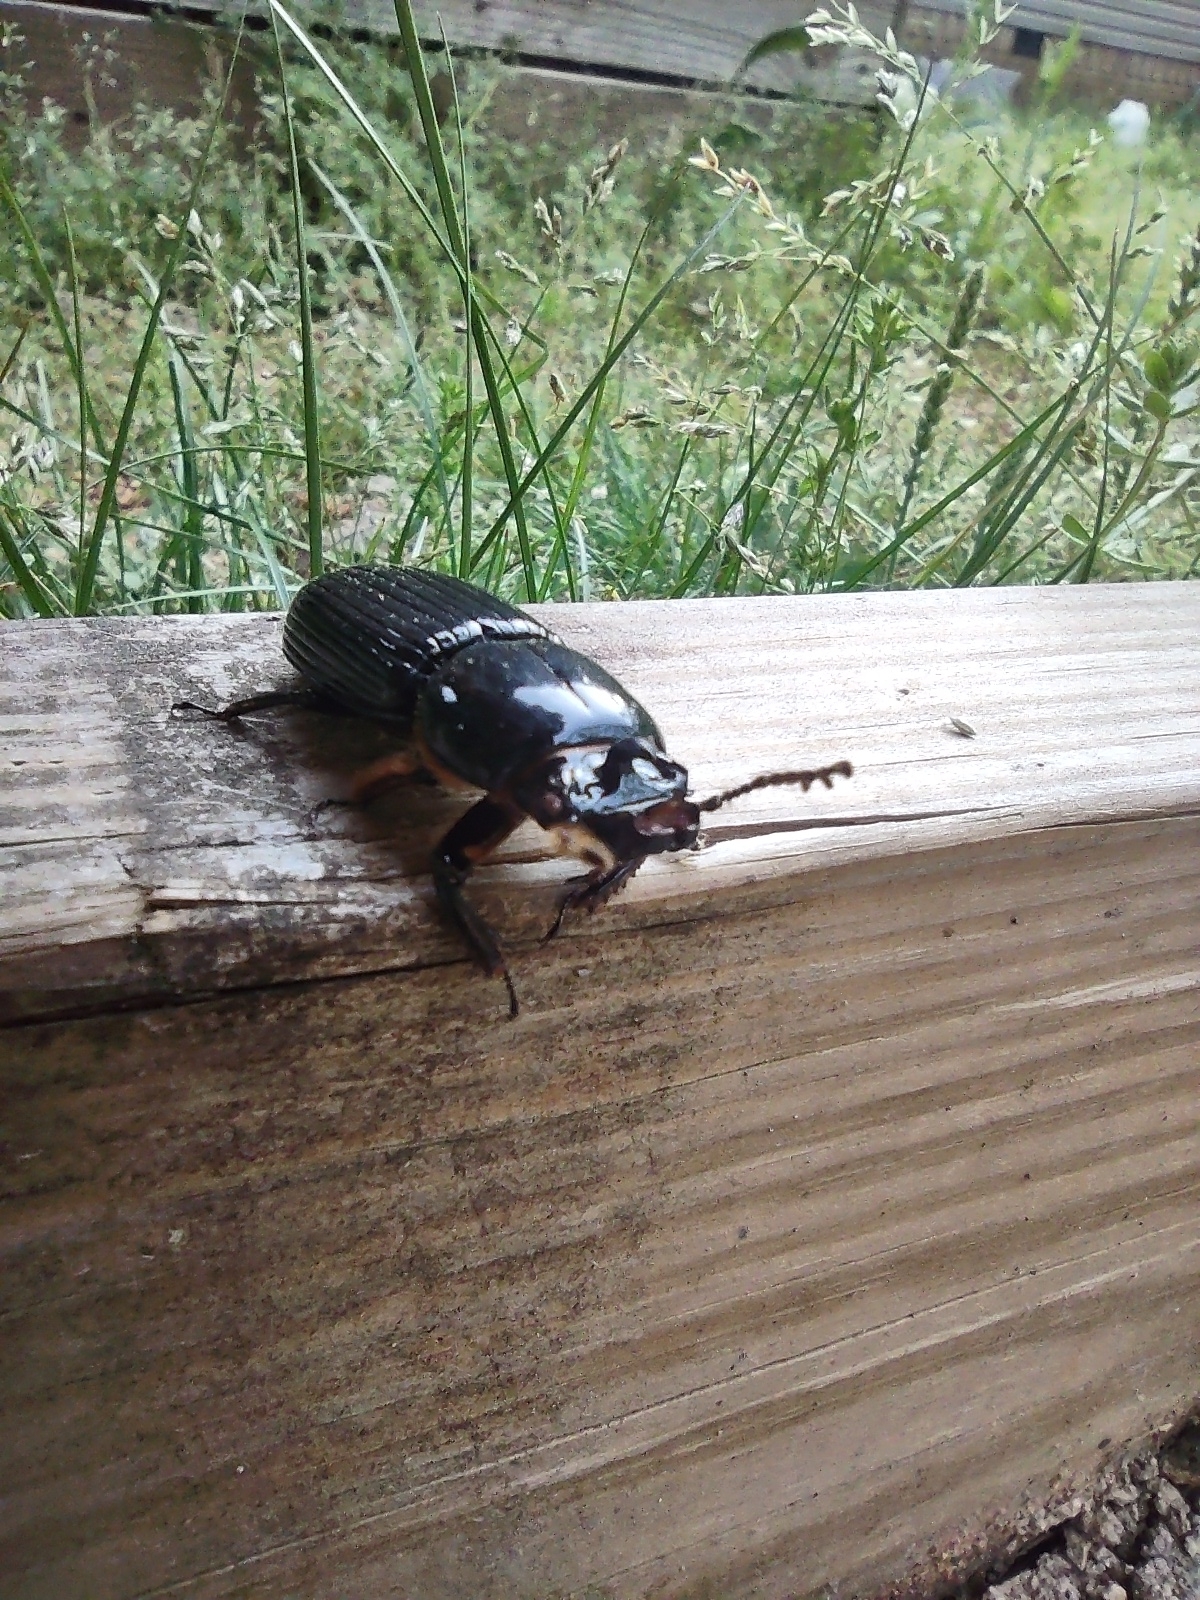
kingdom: Animalia
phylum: Arthropoda
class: Insecta
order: Coleoptera
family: Passalidae
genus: Odontotaenius
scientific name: Odontotaenius disjunctus
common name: Patent leather beetle
